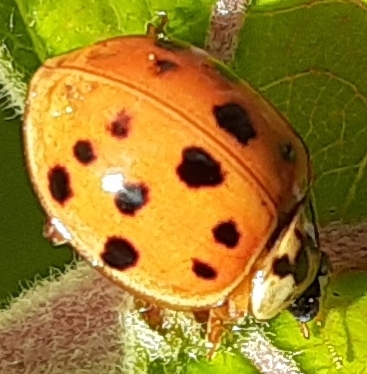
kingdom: Animalia
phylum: Arthropoda
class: Insecta
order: Coleoptera
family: Coccinellidae
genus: Harmonia
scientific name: Harmonia axyridis
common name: Harlequin ladybird
